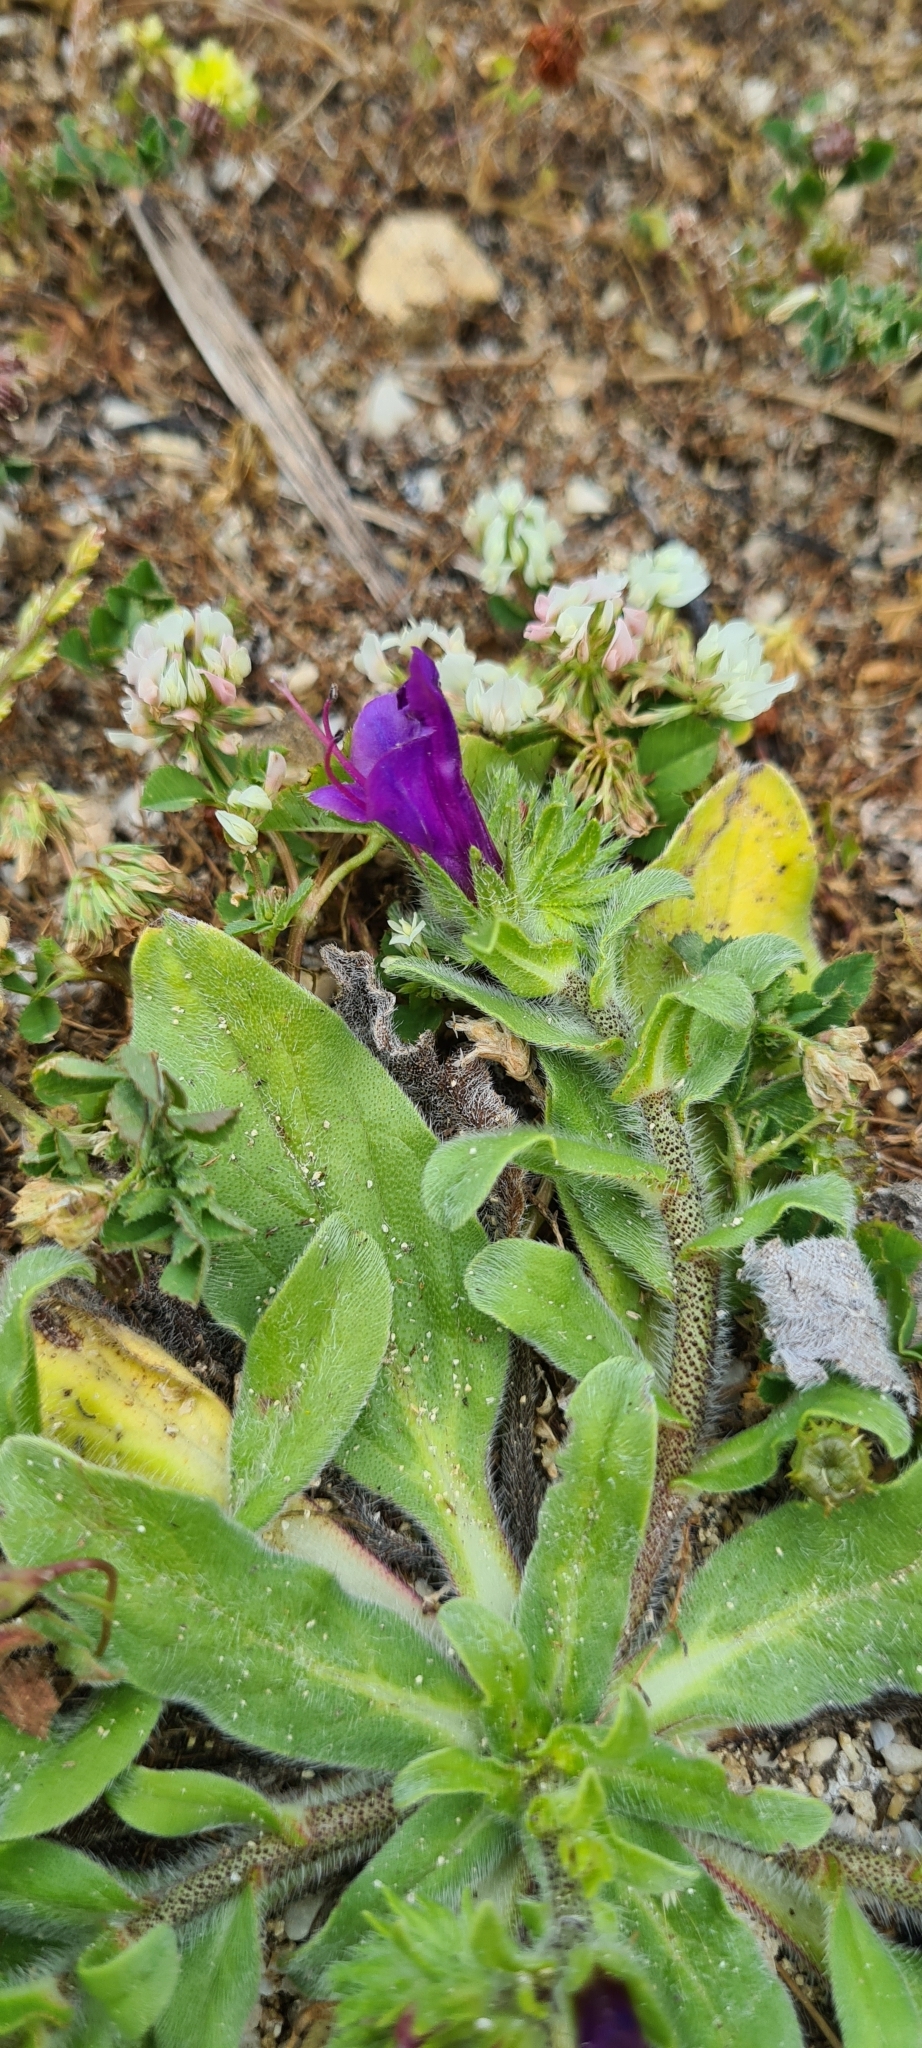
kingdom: Plantae
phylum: Tracheophyta
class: Magnoliopsida
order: Boraginales
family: Boraginaceae
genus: Echium
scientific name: Echium plantagineum
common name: Purple viper's-bugloss
